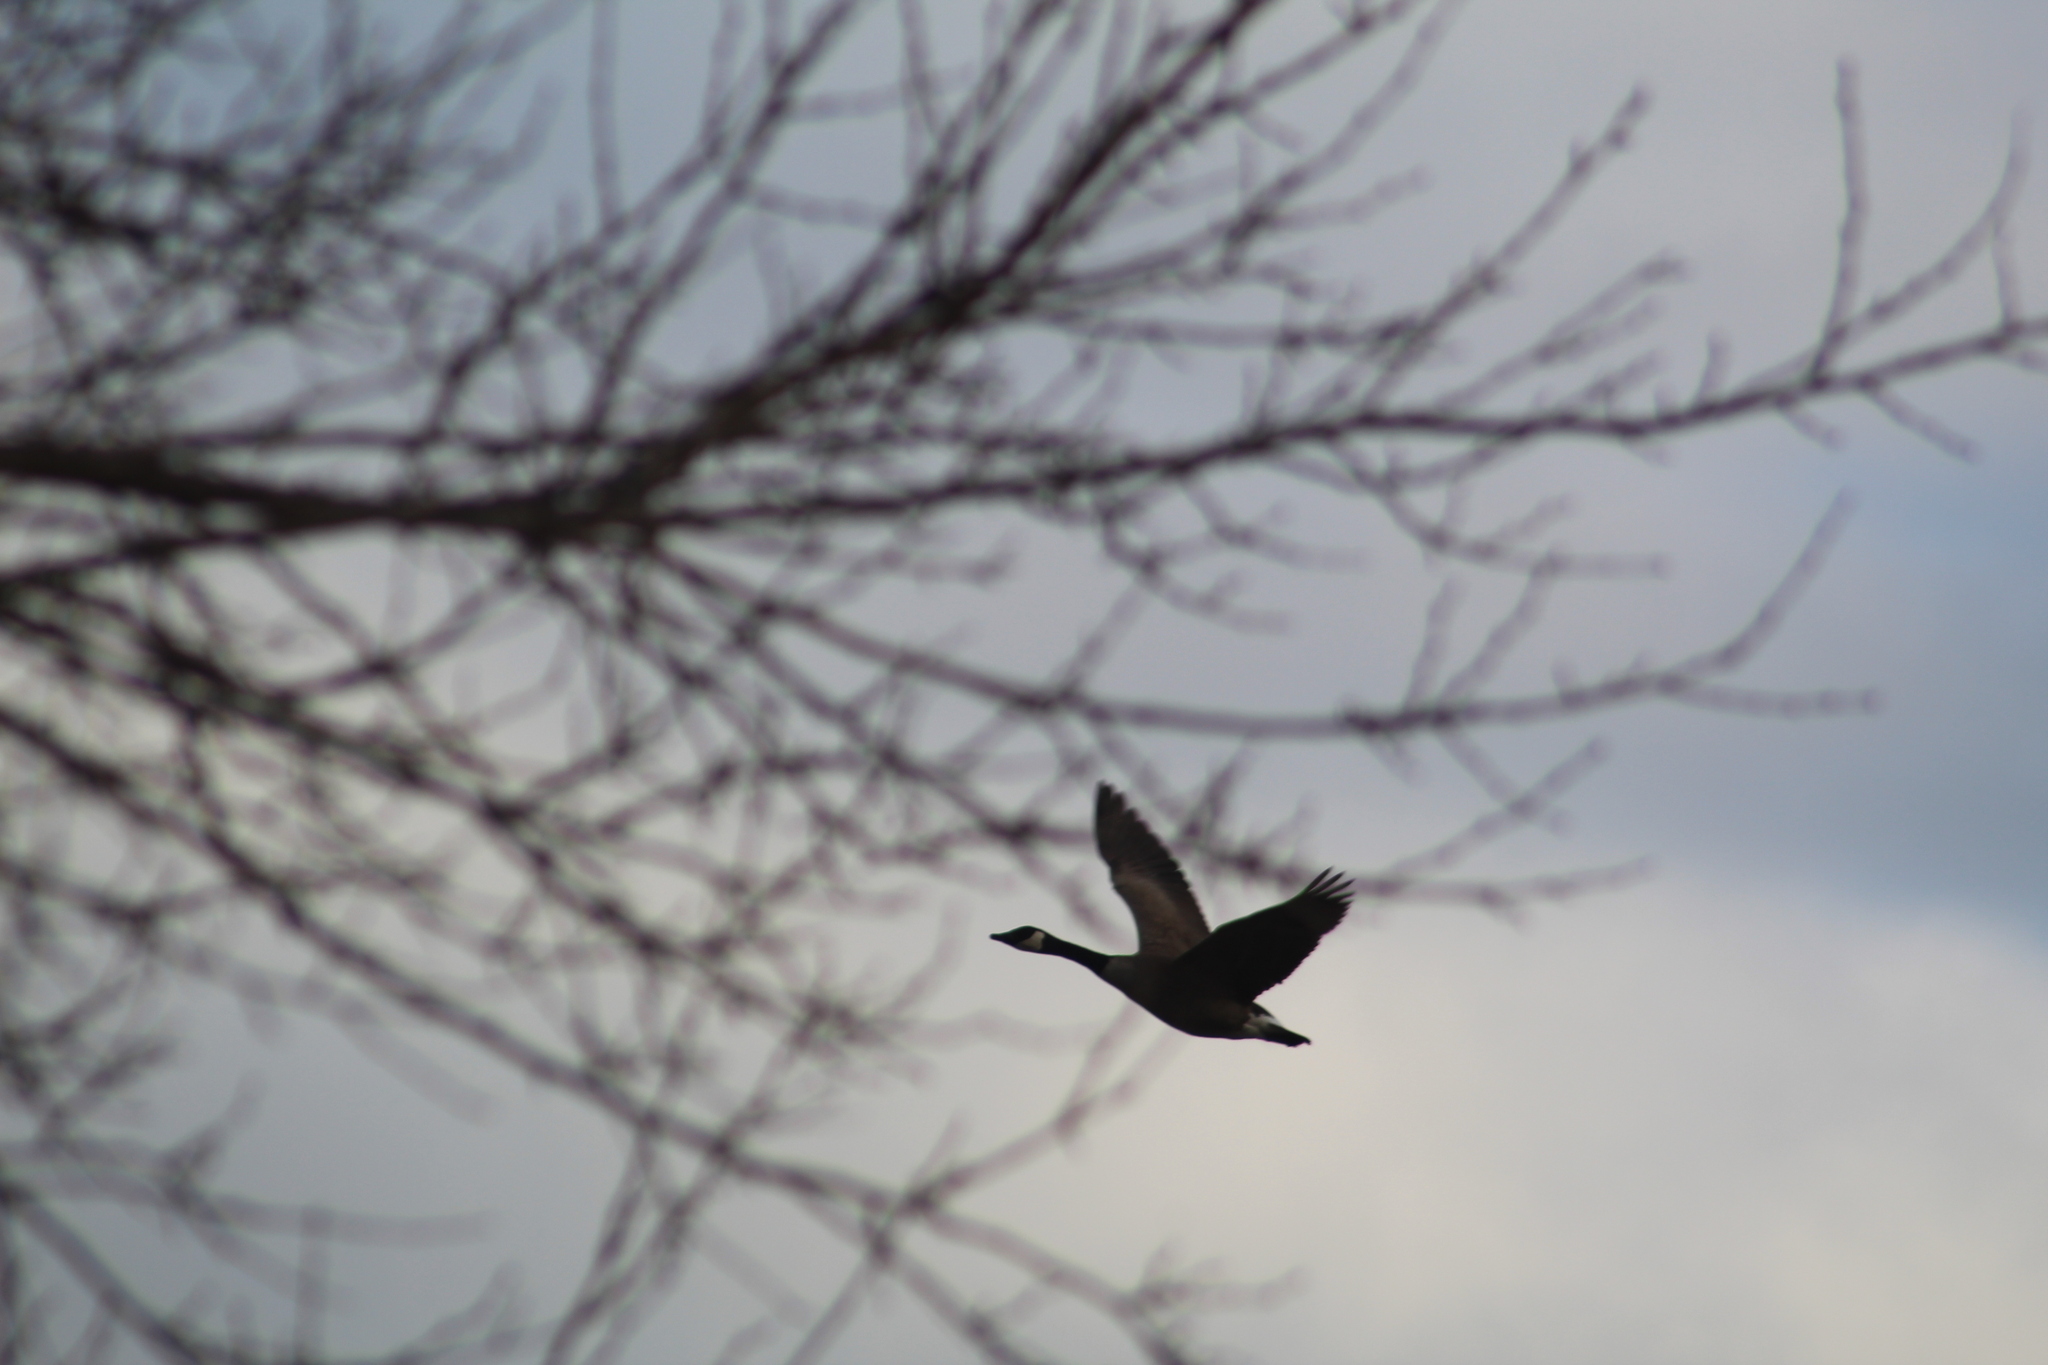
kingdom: Animalia
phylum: Chordata
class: Aves
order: Anseriformes
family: Anatidae
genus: Branta
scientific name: Branta canadensis
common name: Canada goose
